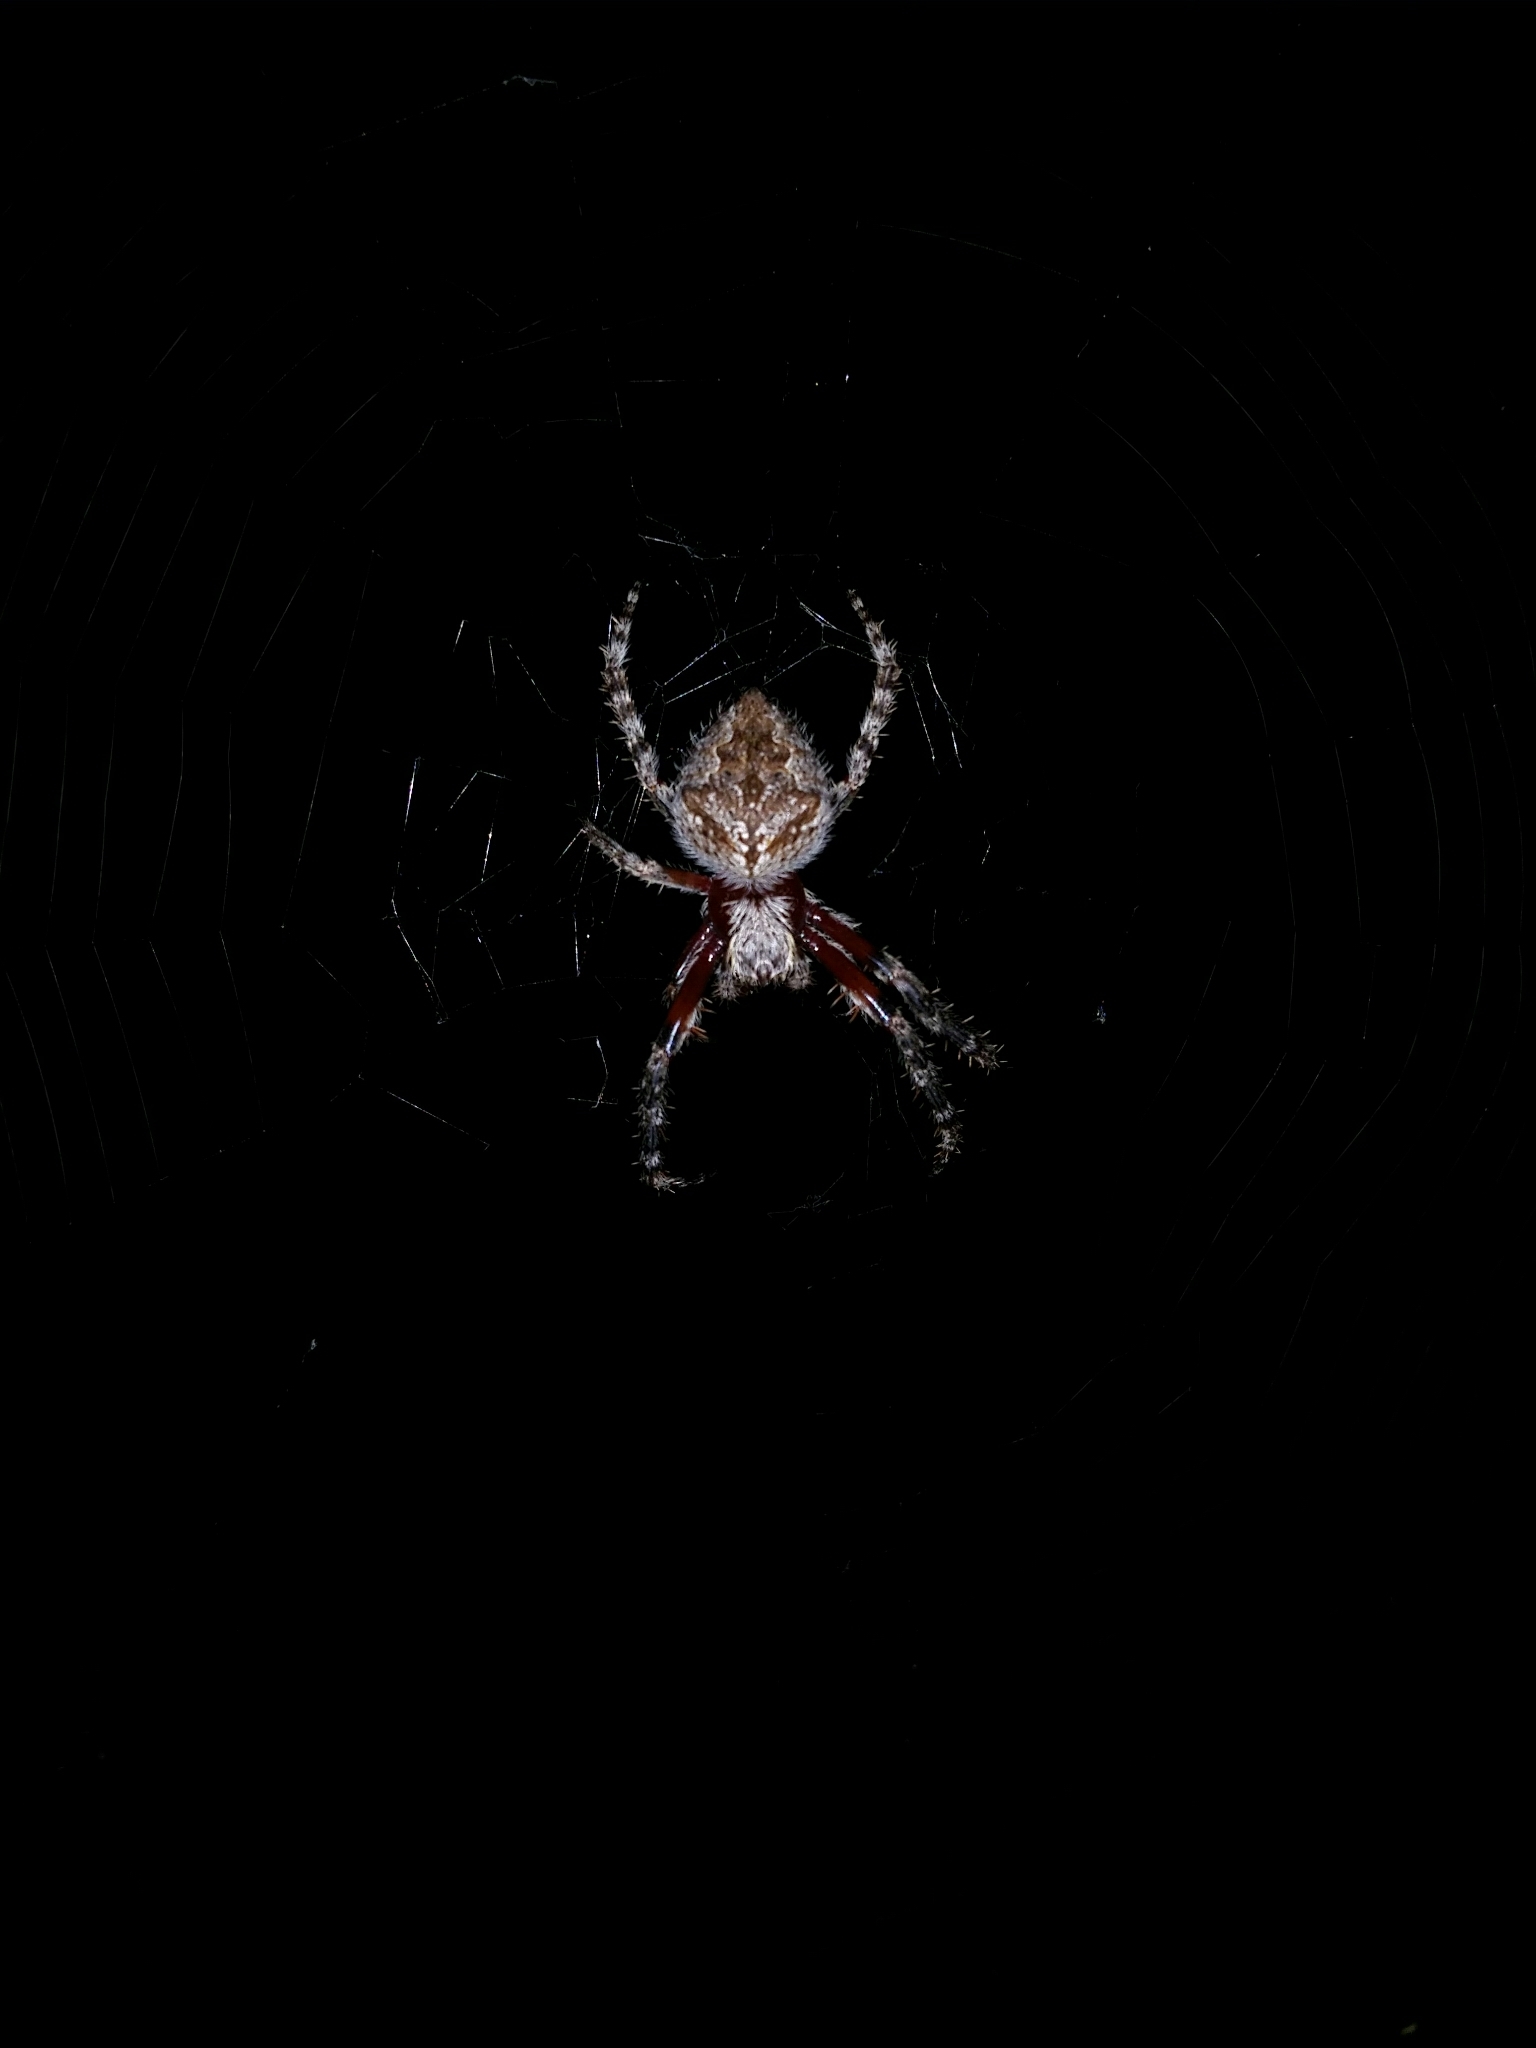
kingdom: Animalia
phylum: Arthropoda
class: Arachnida
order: Araneae
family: Araneidae
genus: Hortophora
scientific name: Hortophora biapicata
